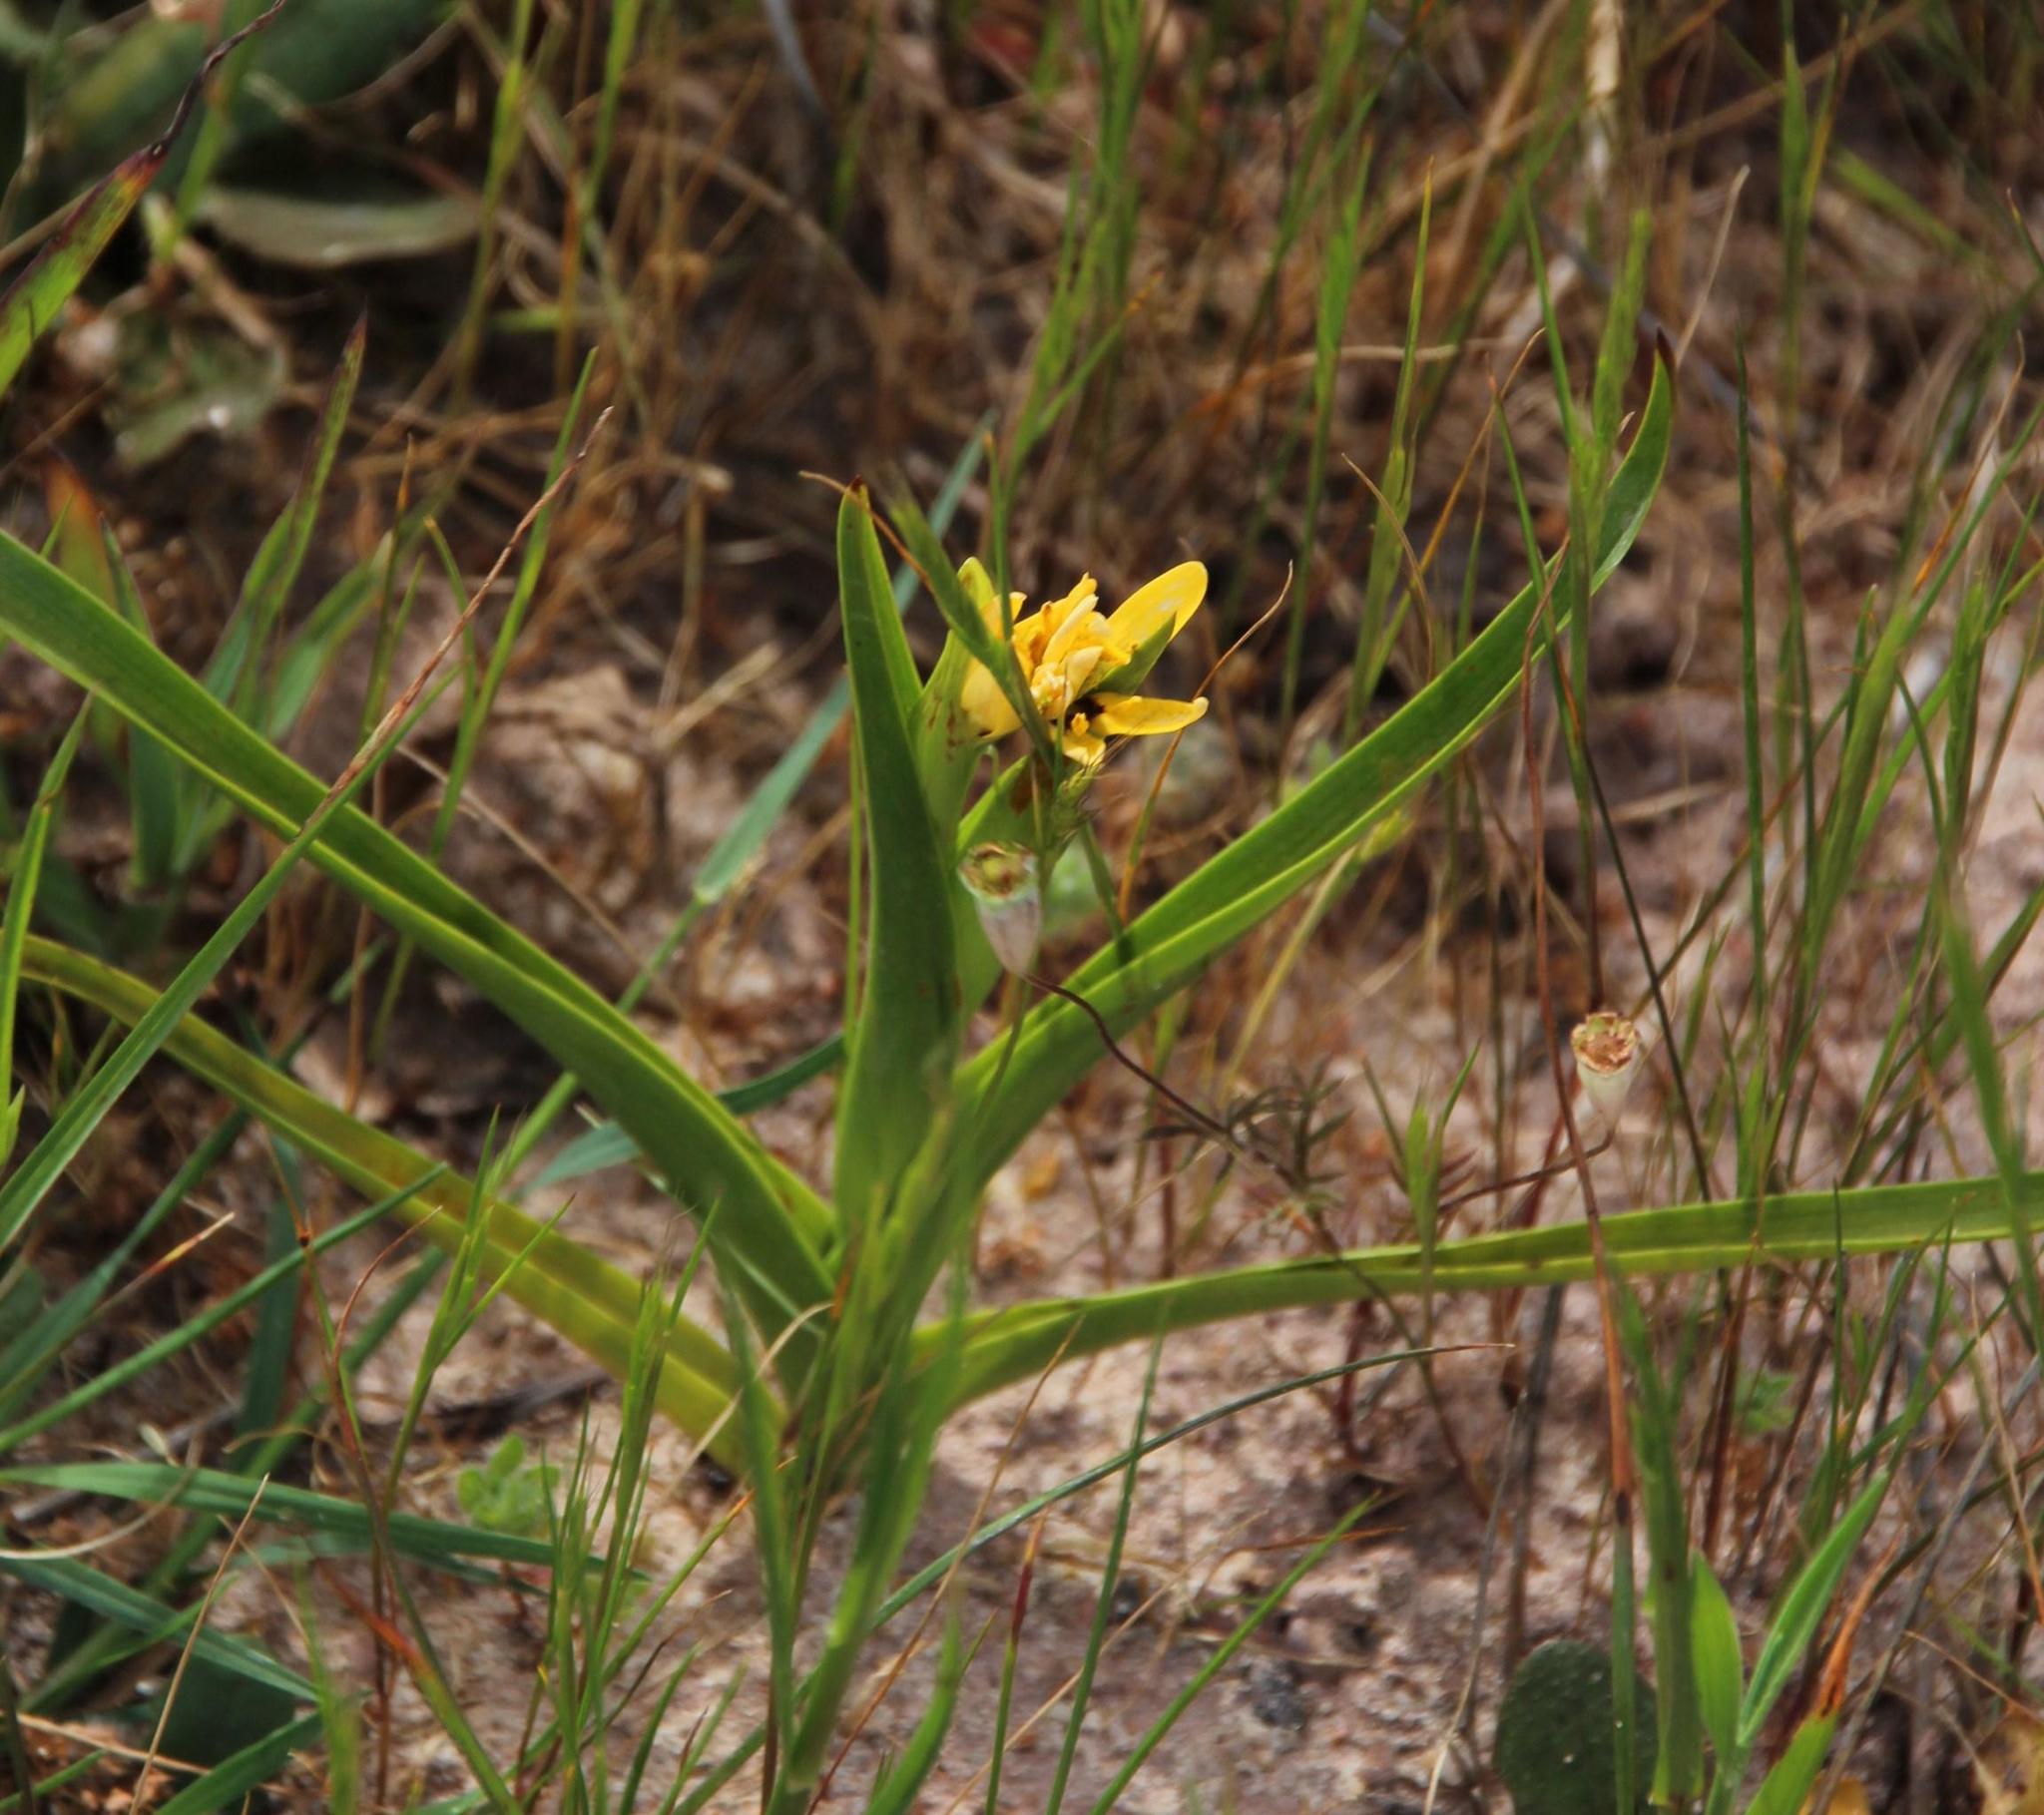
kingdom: Plantae
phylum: Tracheophyta
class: Liliopsida
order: Liliales
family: Colchicaceae
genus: Baeometra
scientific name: Baeometra uniflora
